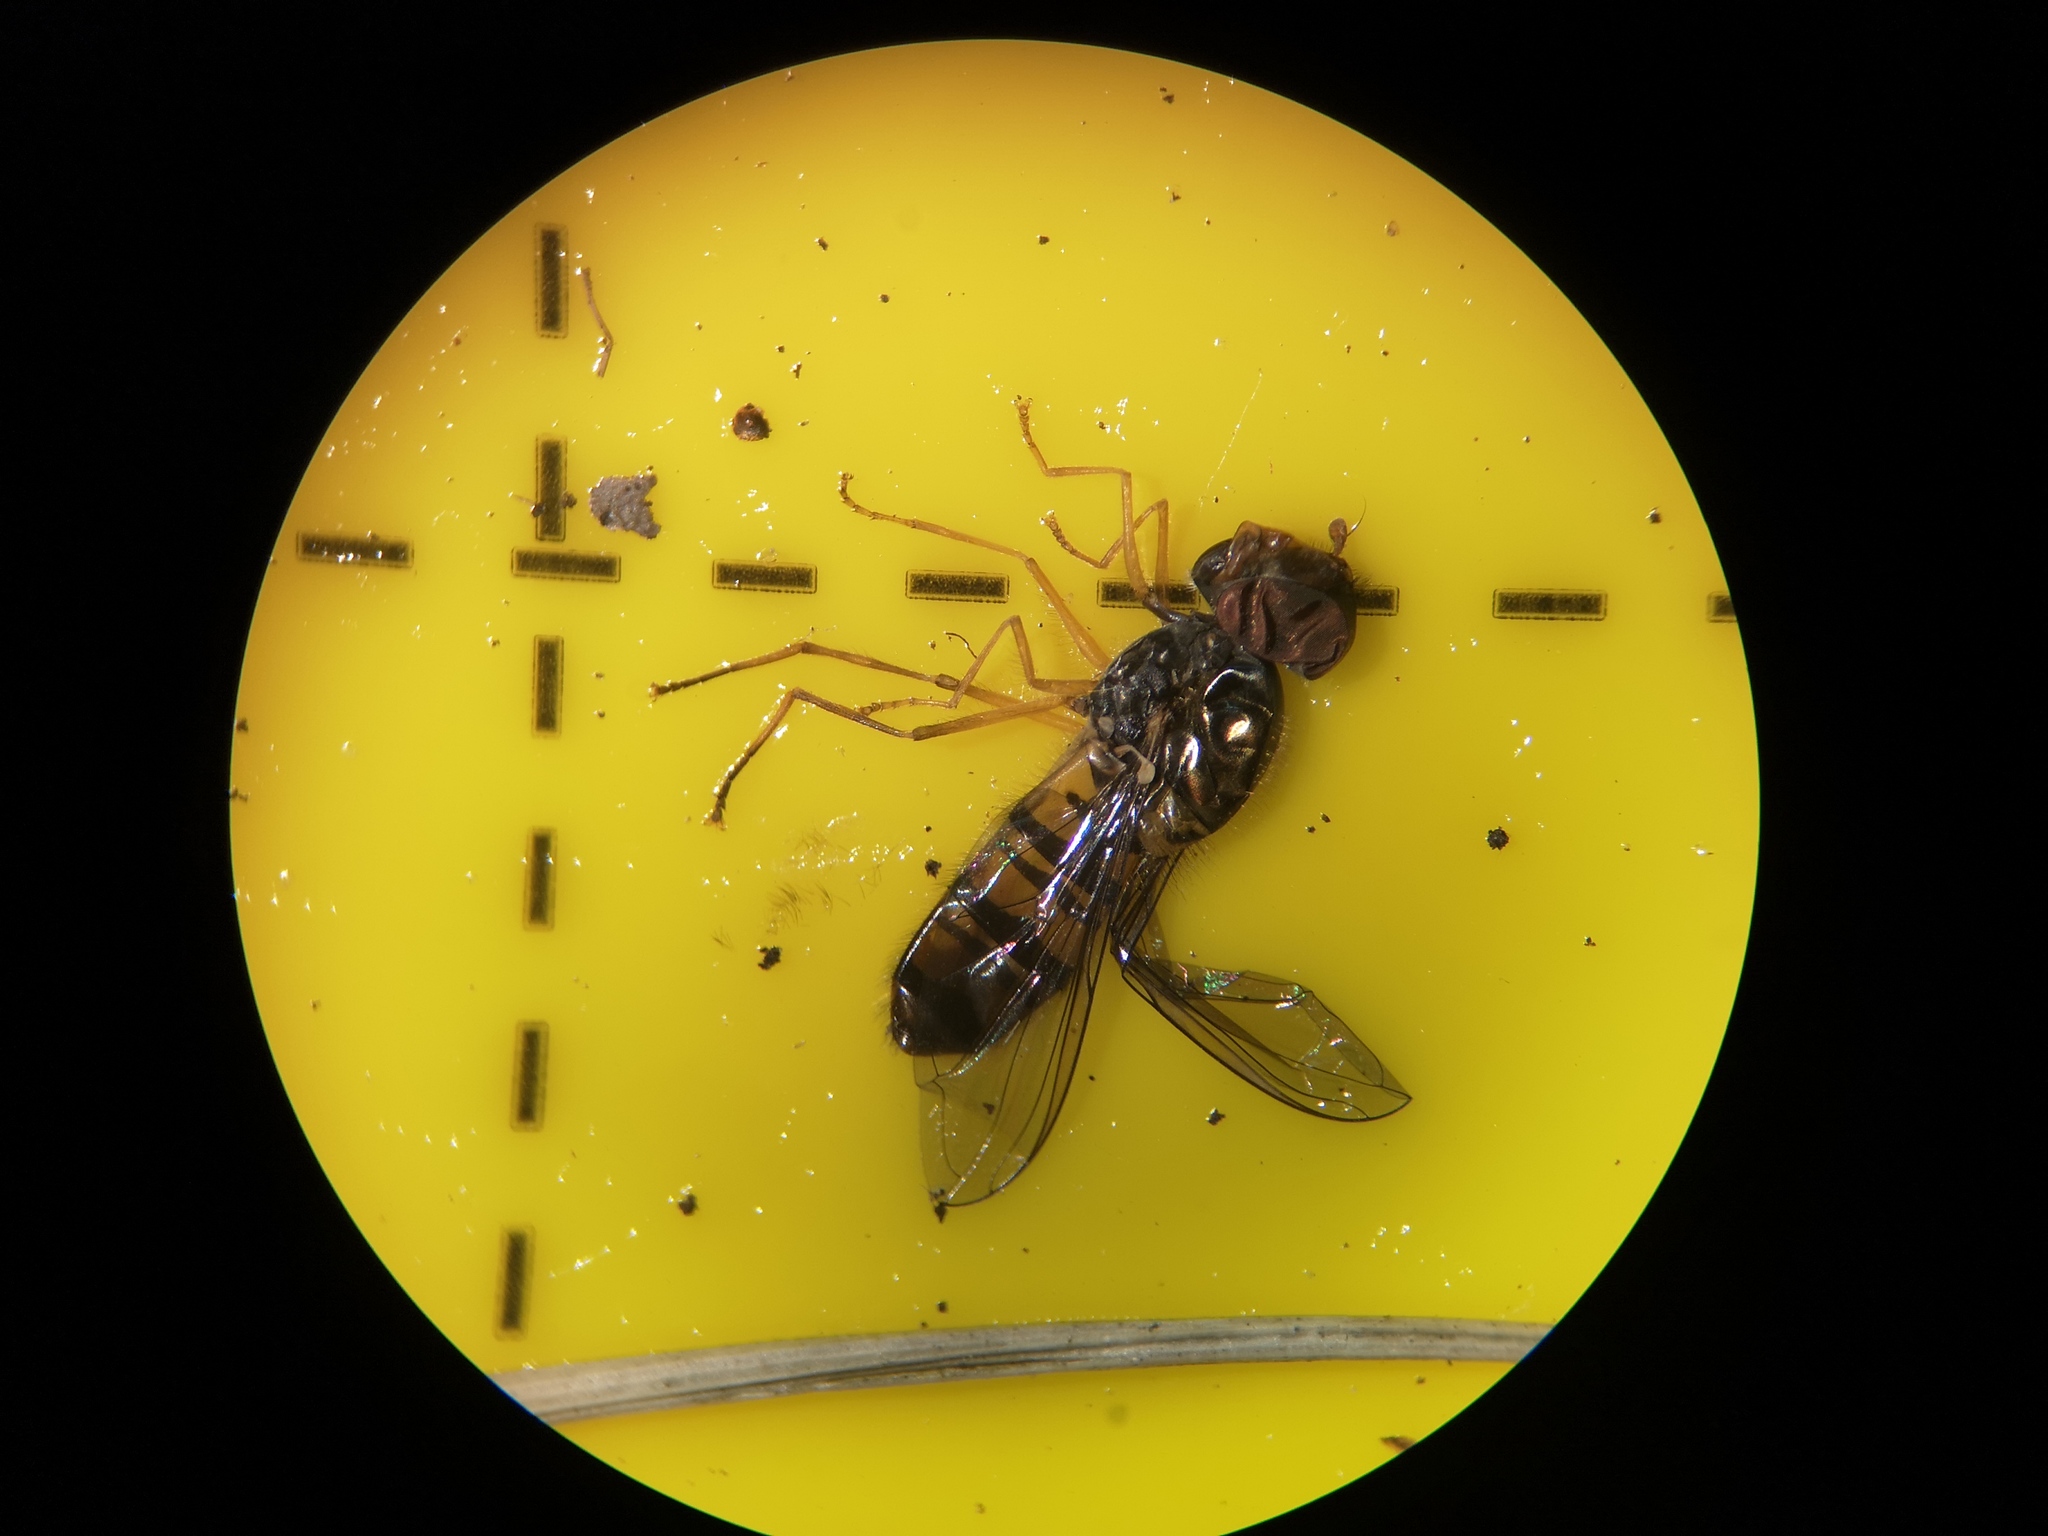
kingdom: Animalia
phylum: Arthropoda
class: Insecta
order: Diptera
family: Syrphidae
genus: Episyrphus
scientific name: Episyrphus balteatus
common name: Marmalade hoverfly
